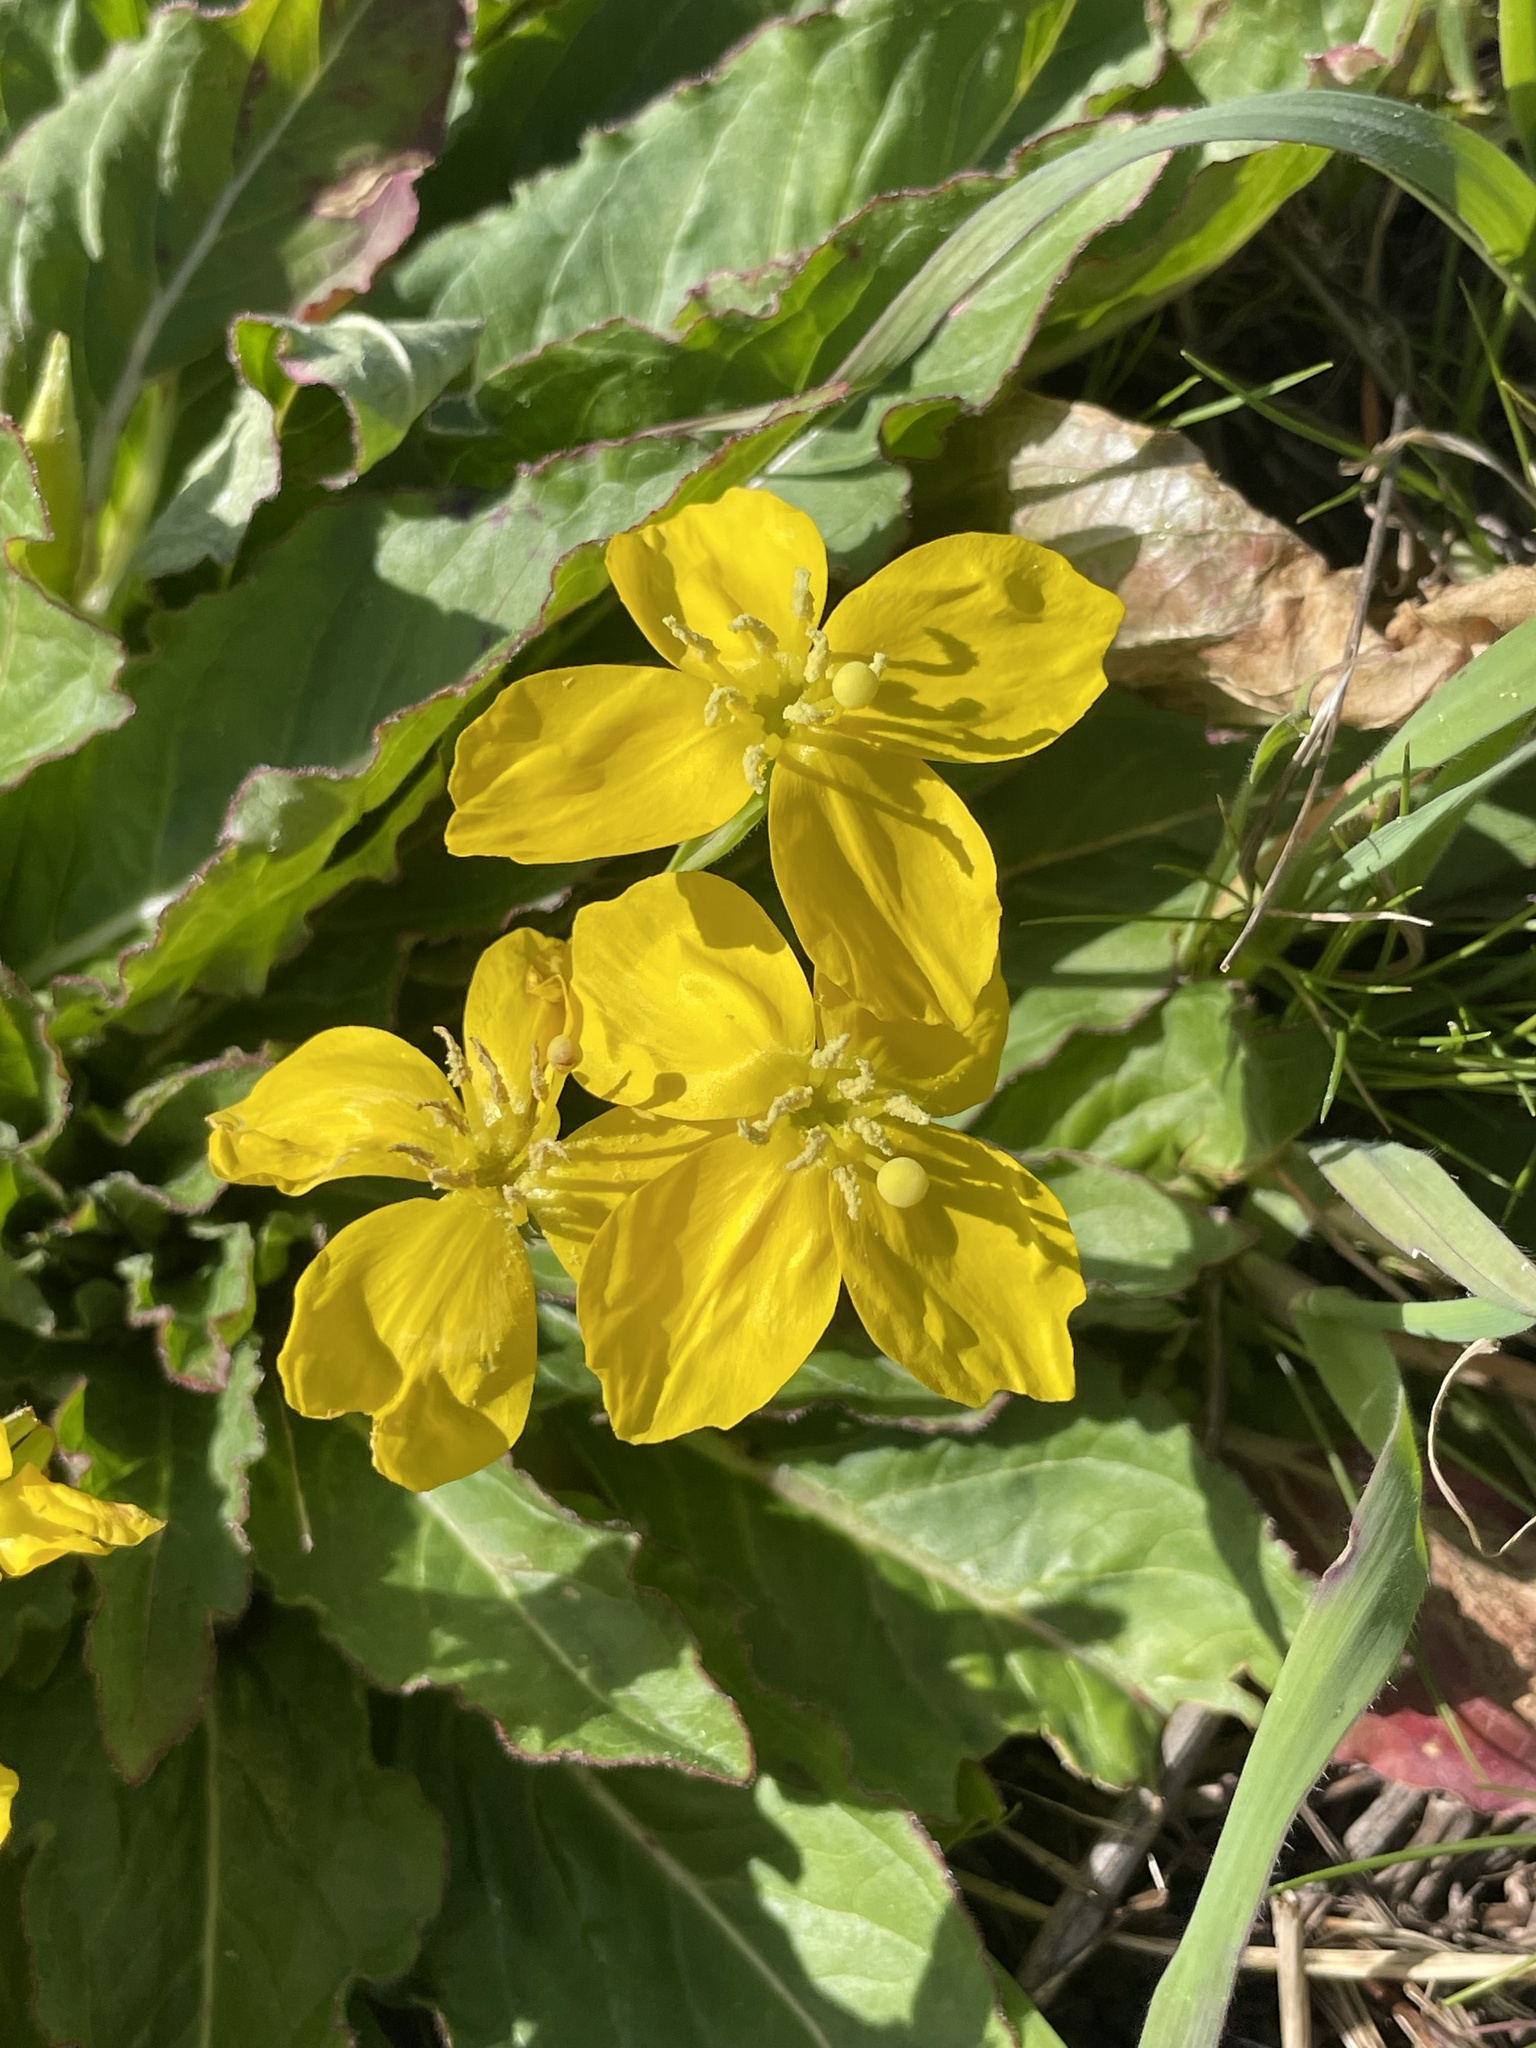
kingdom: Plantae
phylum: Tracheophyta
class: Magnoliopsida
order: Myrtales
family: Onagraceae
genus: Taraxia
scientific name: Taraxia ovata
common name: Goldeneggs
